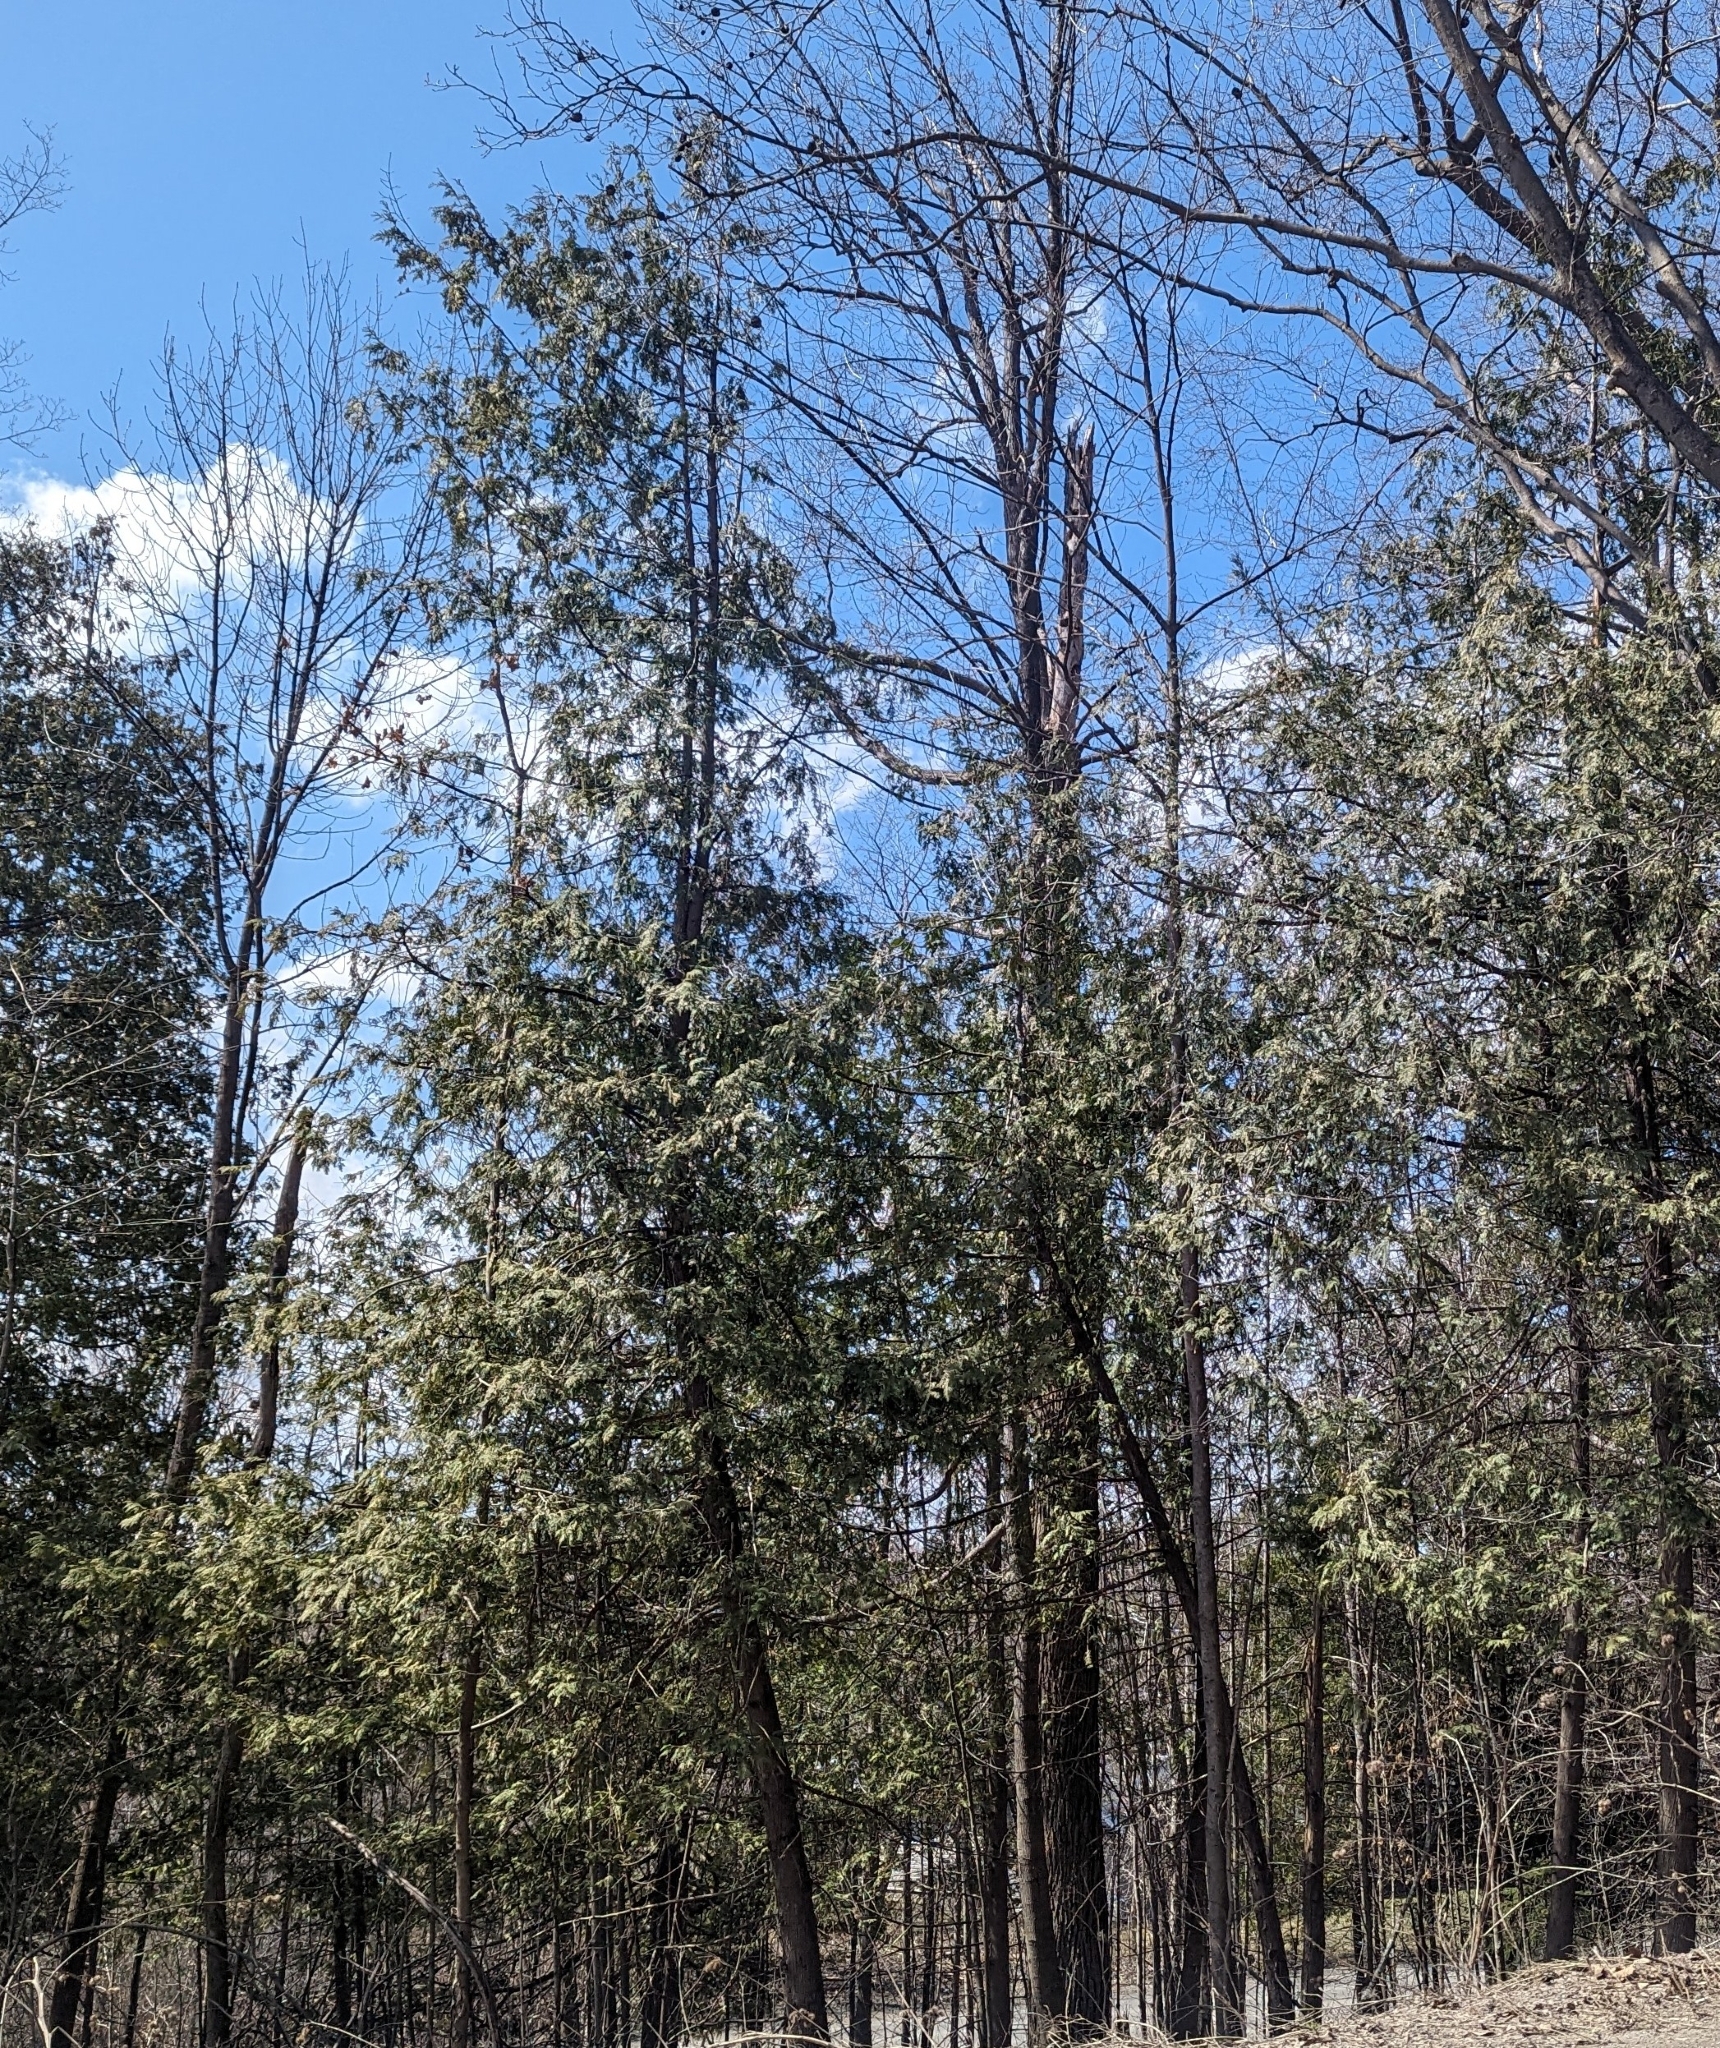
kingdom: Plantae
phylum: Tracheophyta
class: Pinopsida
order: Pinales
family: Cupressaceae
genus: Thuja
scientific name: Thuja occidentalis
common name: Northern white-cedar
